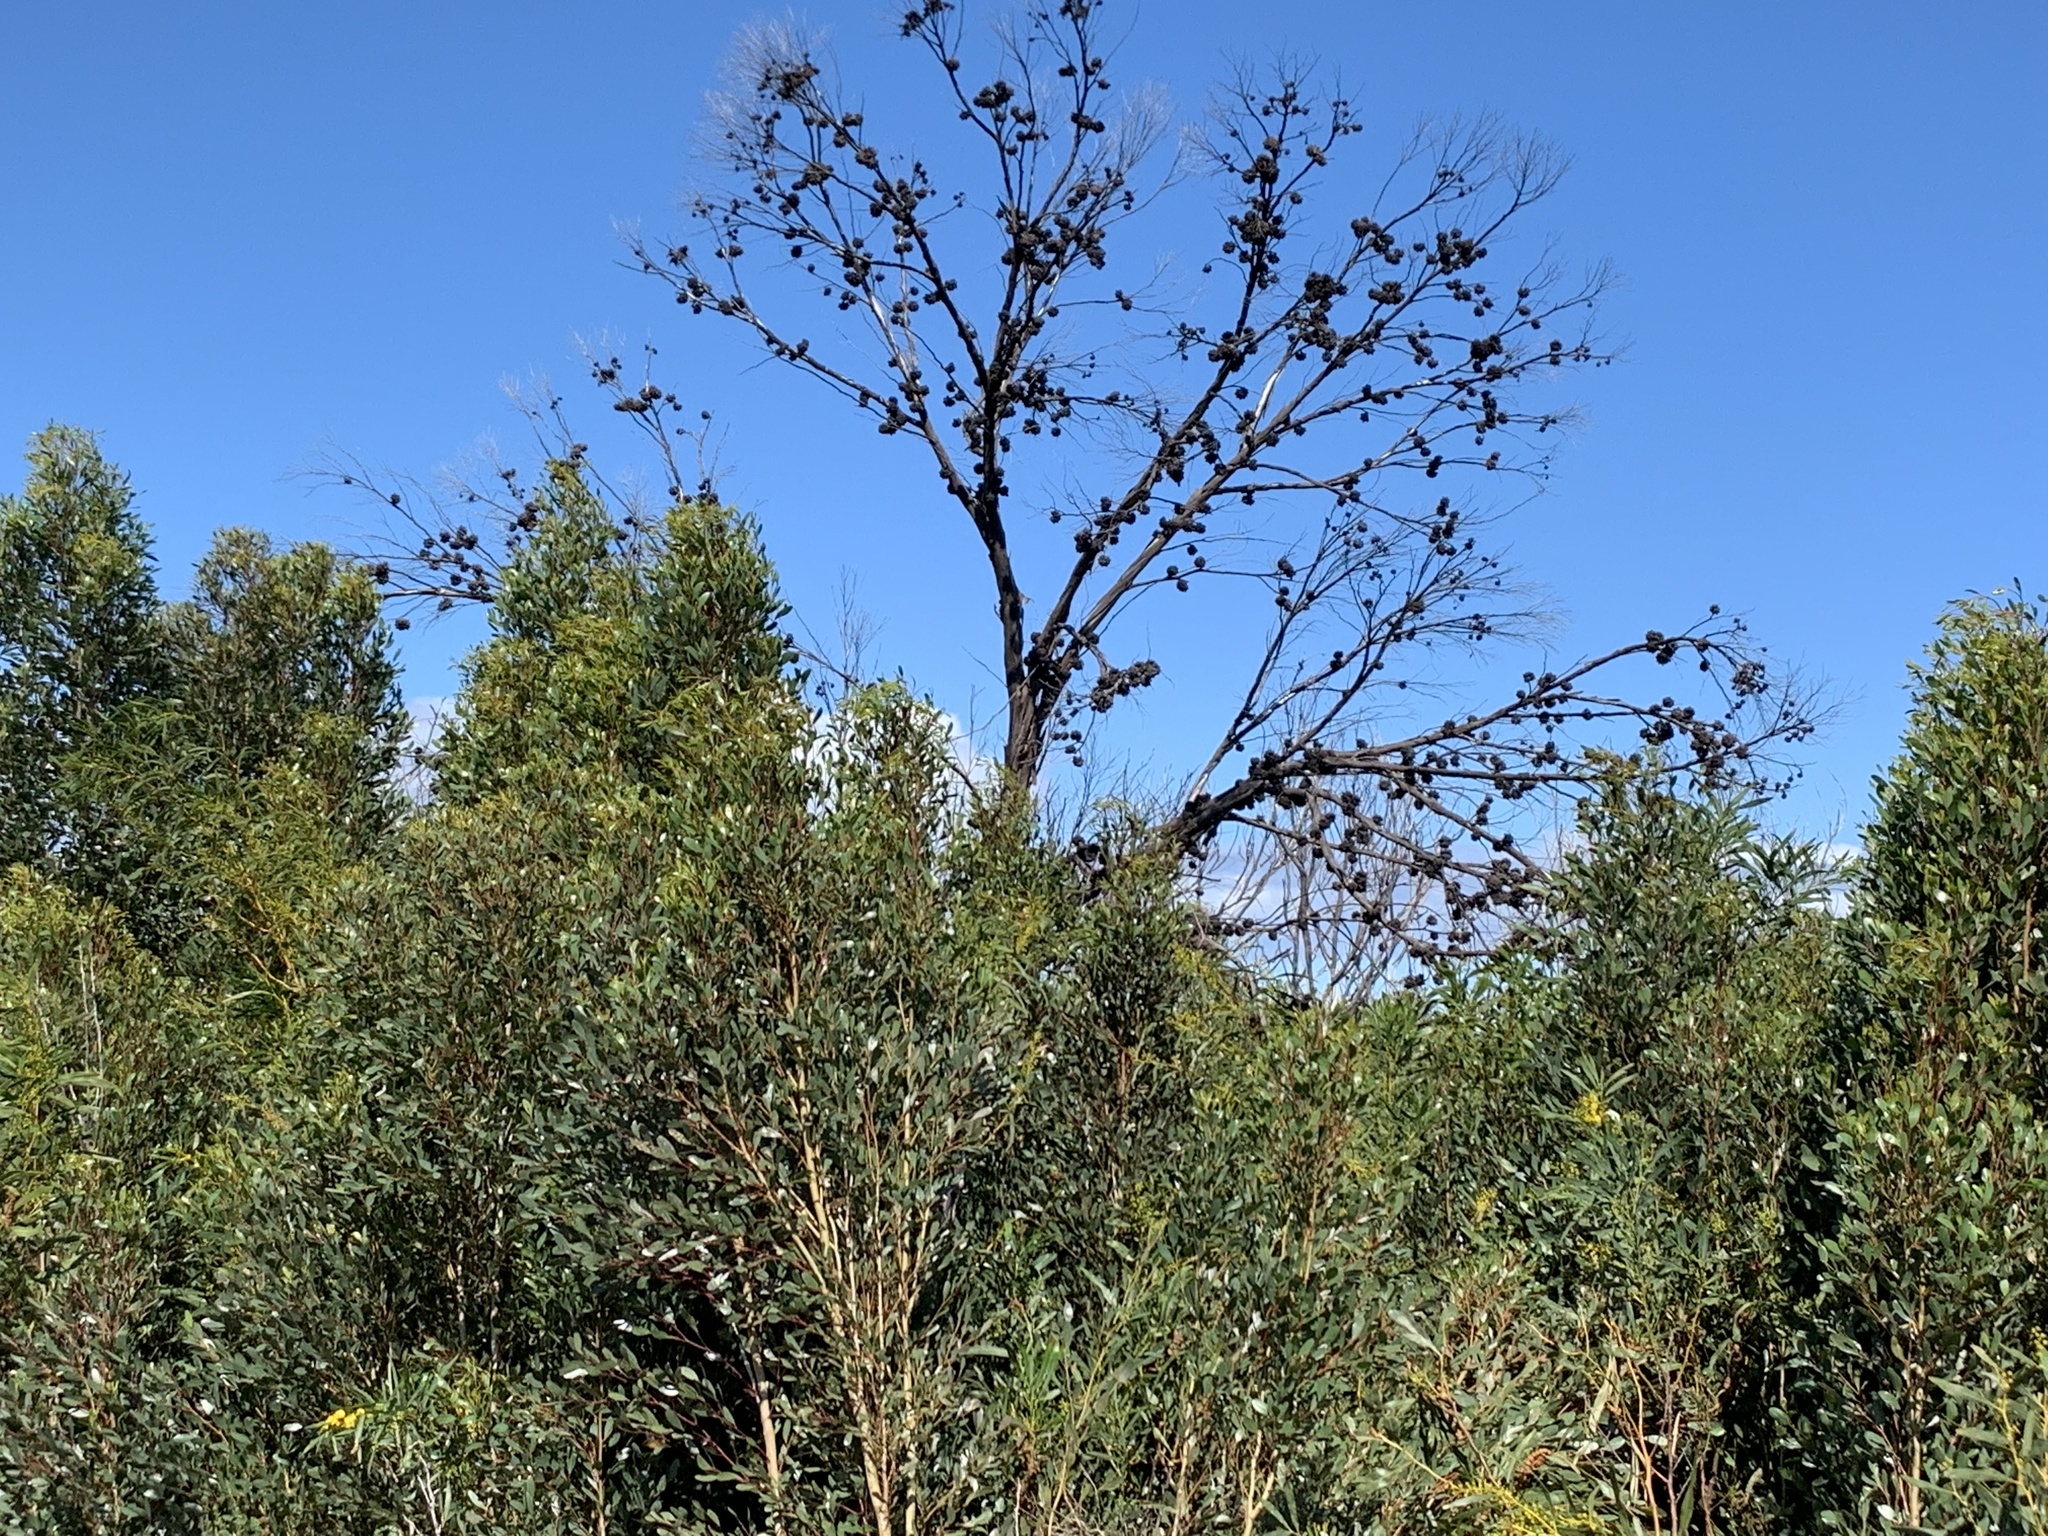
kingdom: Plantae
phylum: Tracheophyta
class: Magnoliopsida
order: Myrtales
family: Myrtaceae
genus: Eucalyptus
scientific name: Eucalyptus conferruminata
